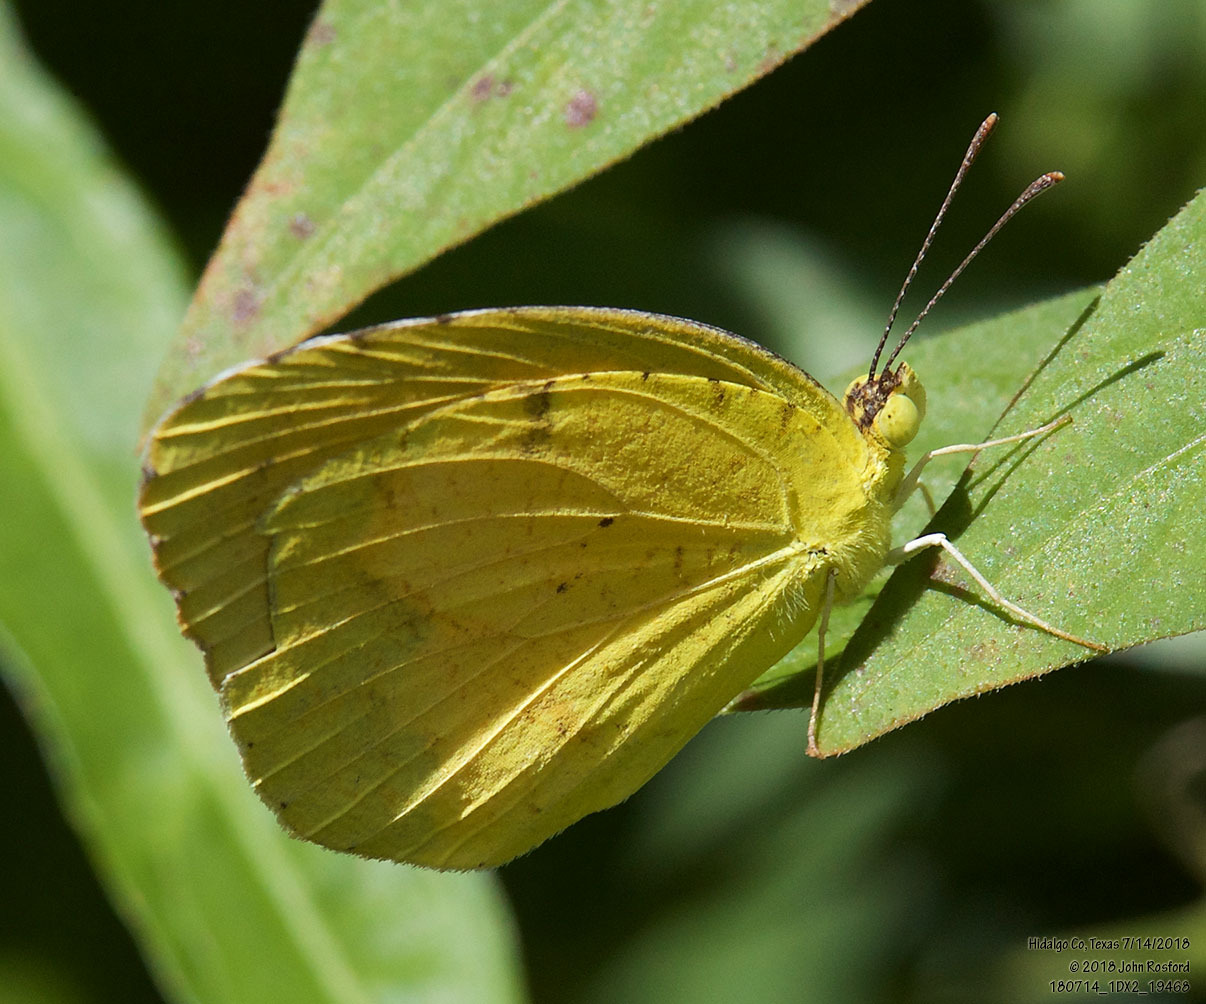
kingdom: Animalia
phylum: Arthropoda
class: Insecta
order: Lepidoptera
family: Pieridae
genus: Abaeis
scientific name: Abaeis nicippe
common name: Sleepy orange
